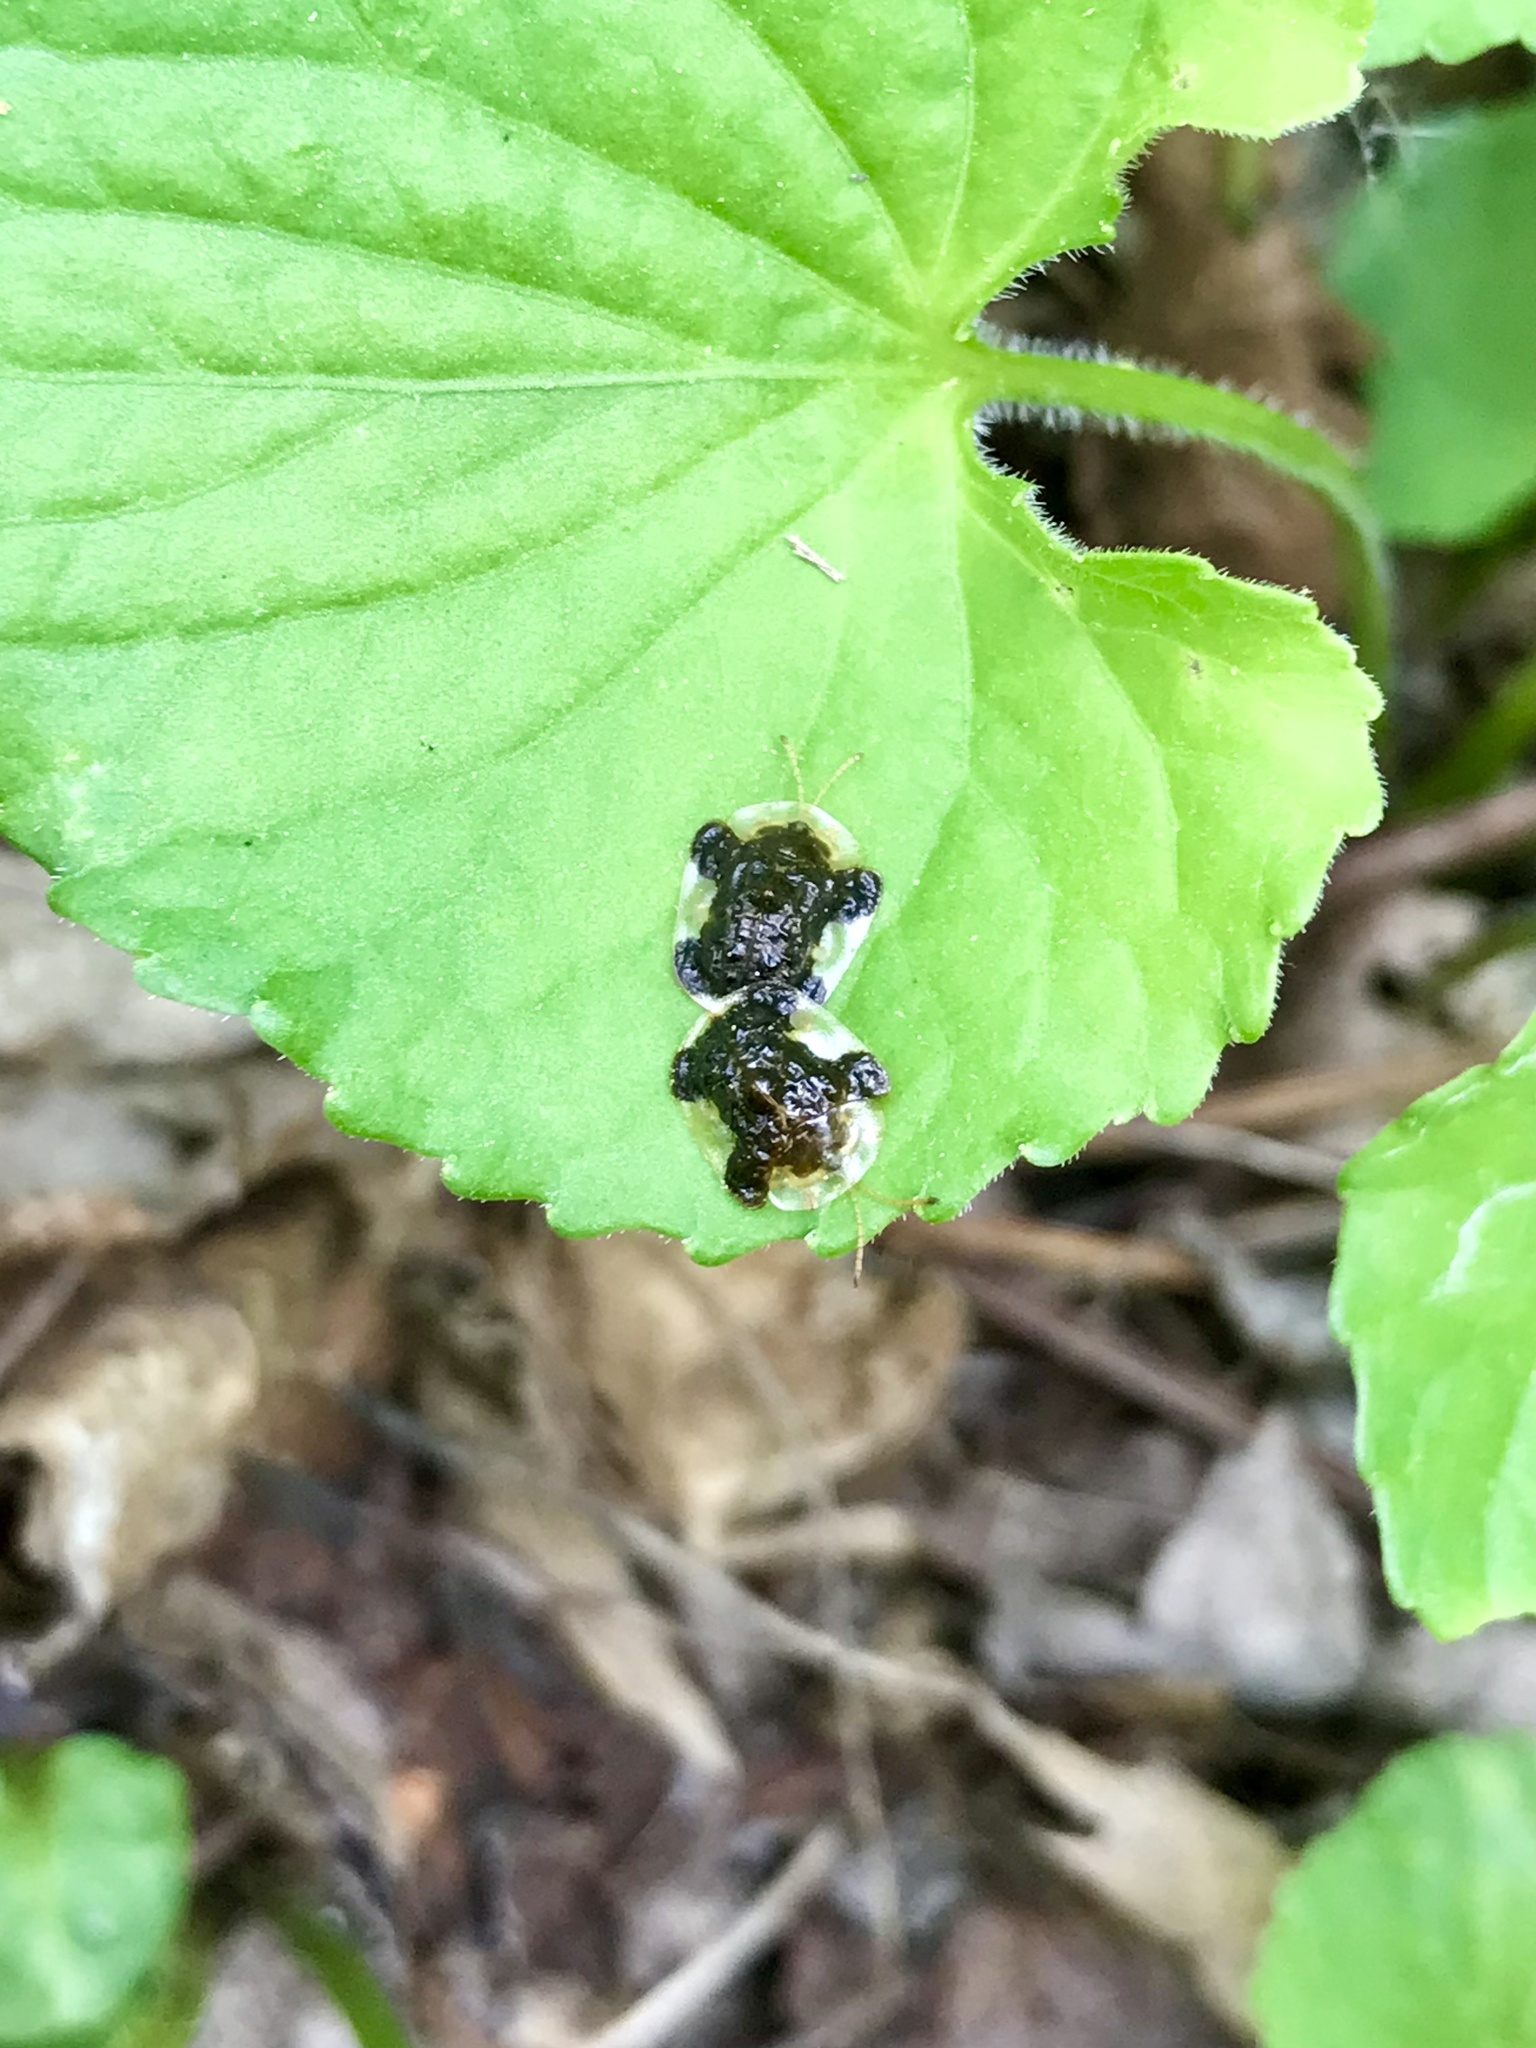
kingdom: Animalia
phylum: Arthropoda
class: Insecta
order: Coleoptera
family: Chrysomelidae
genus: Helocassis
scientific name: Helocassis clavata
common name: Clavate tortoise beetle
